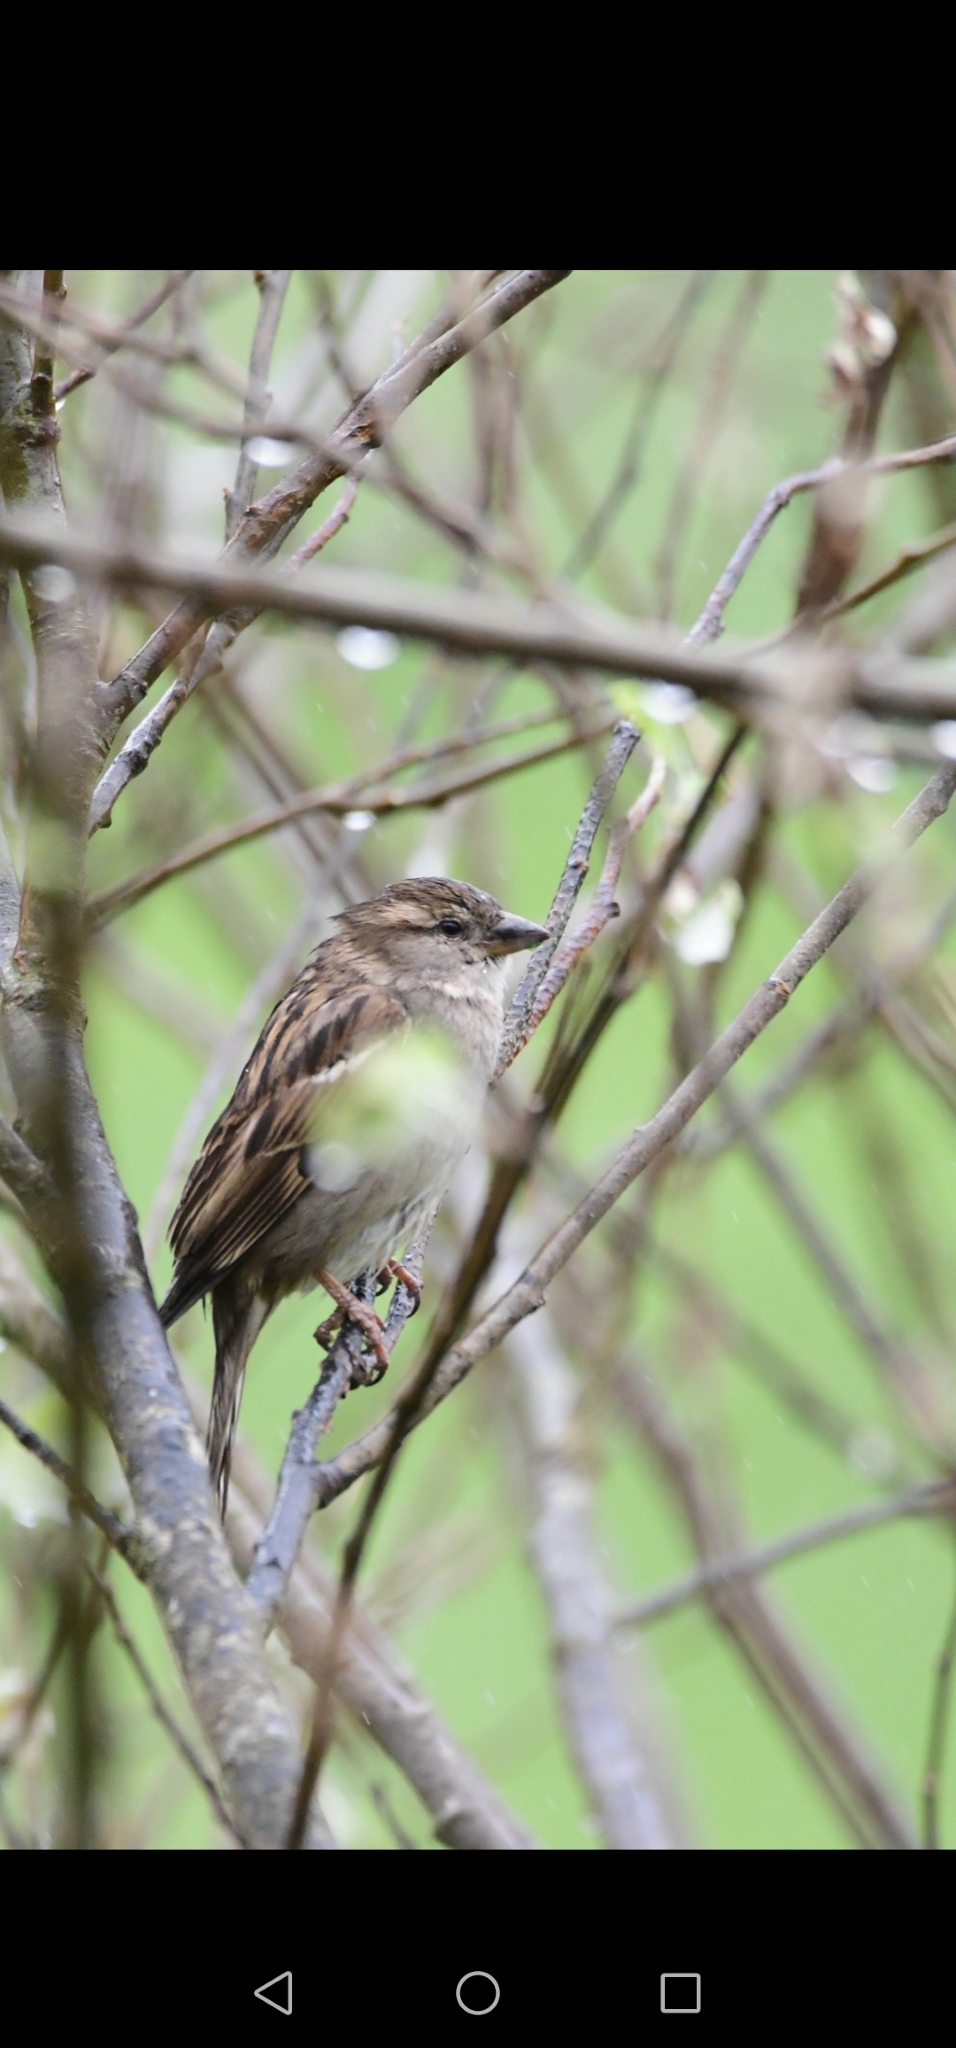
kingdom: Animalia
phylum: Chordata
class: Aves
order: Passeriformes
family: Passeridae
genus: Passer
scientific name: Passer domesticus
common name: House sparrow
